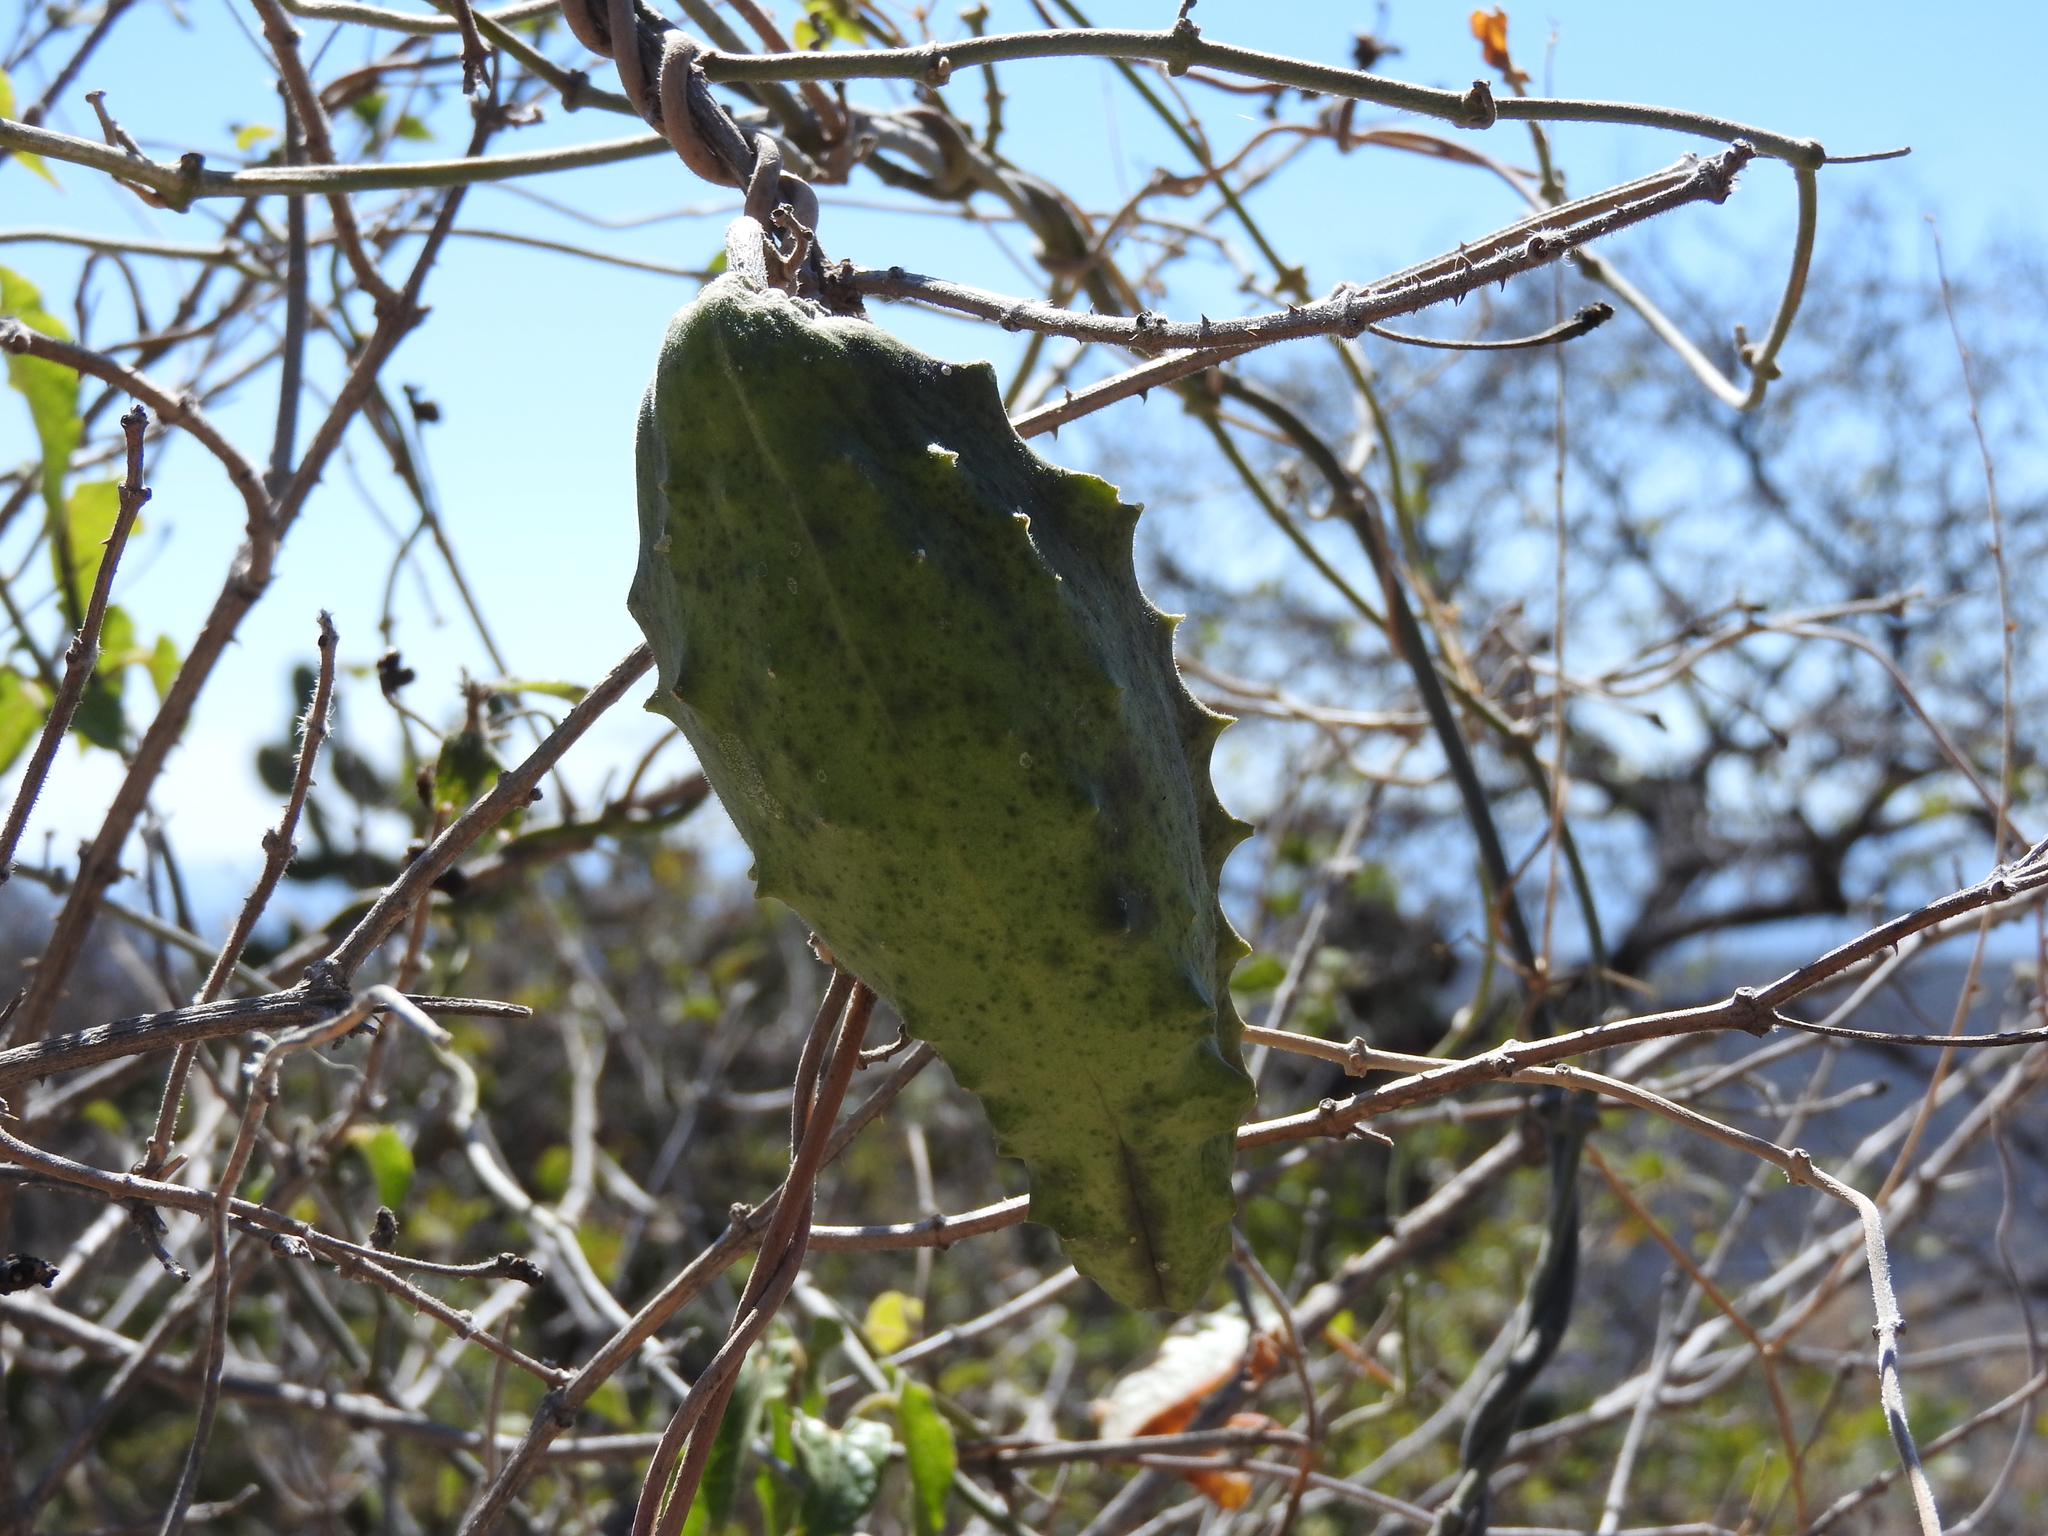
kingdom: Plantae
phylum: Tracheophyta
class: Magnoliopsida
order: Gentianales
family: Apocynaceae
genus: Gonolobus
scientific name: Gonolobus grandiflorus
